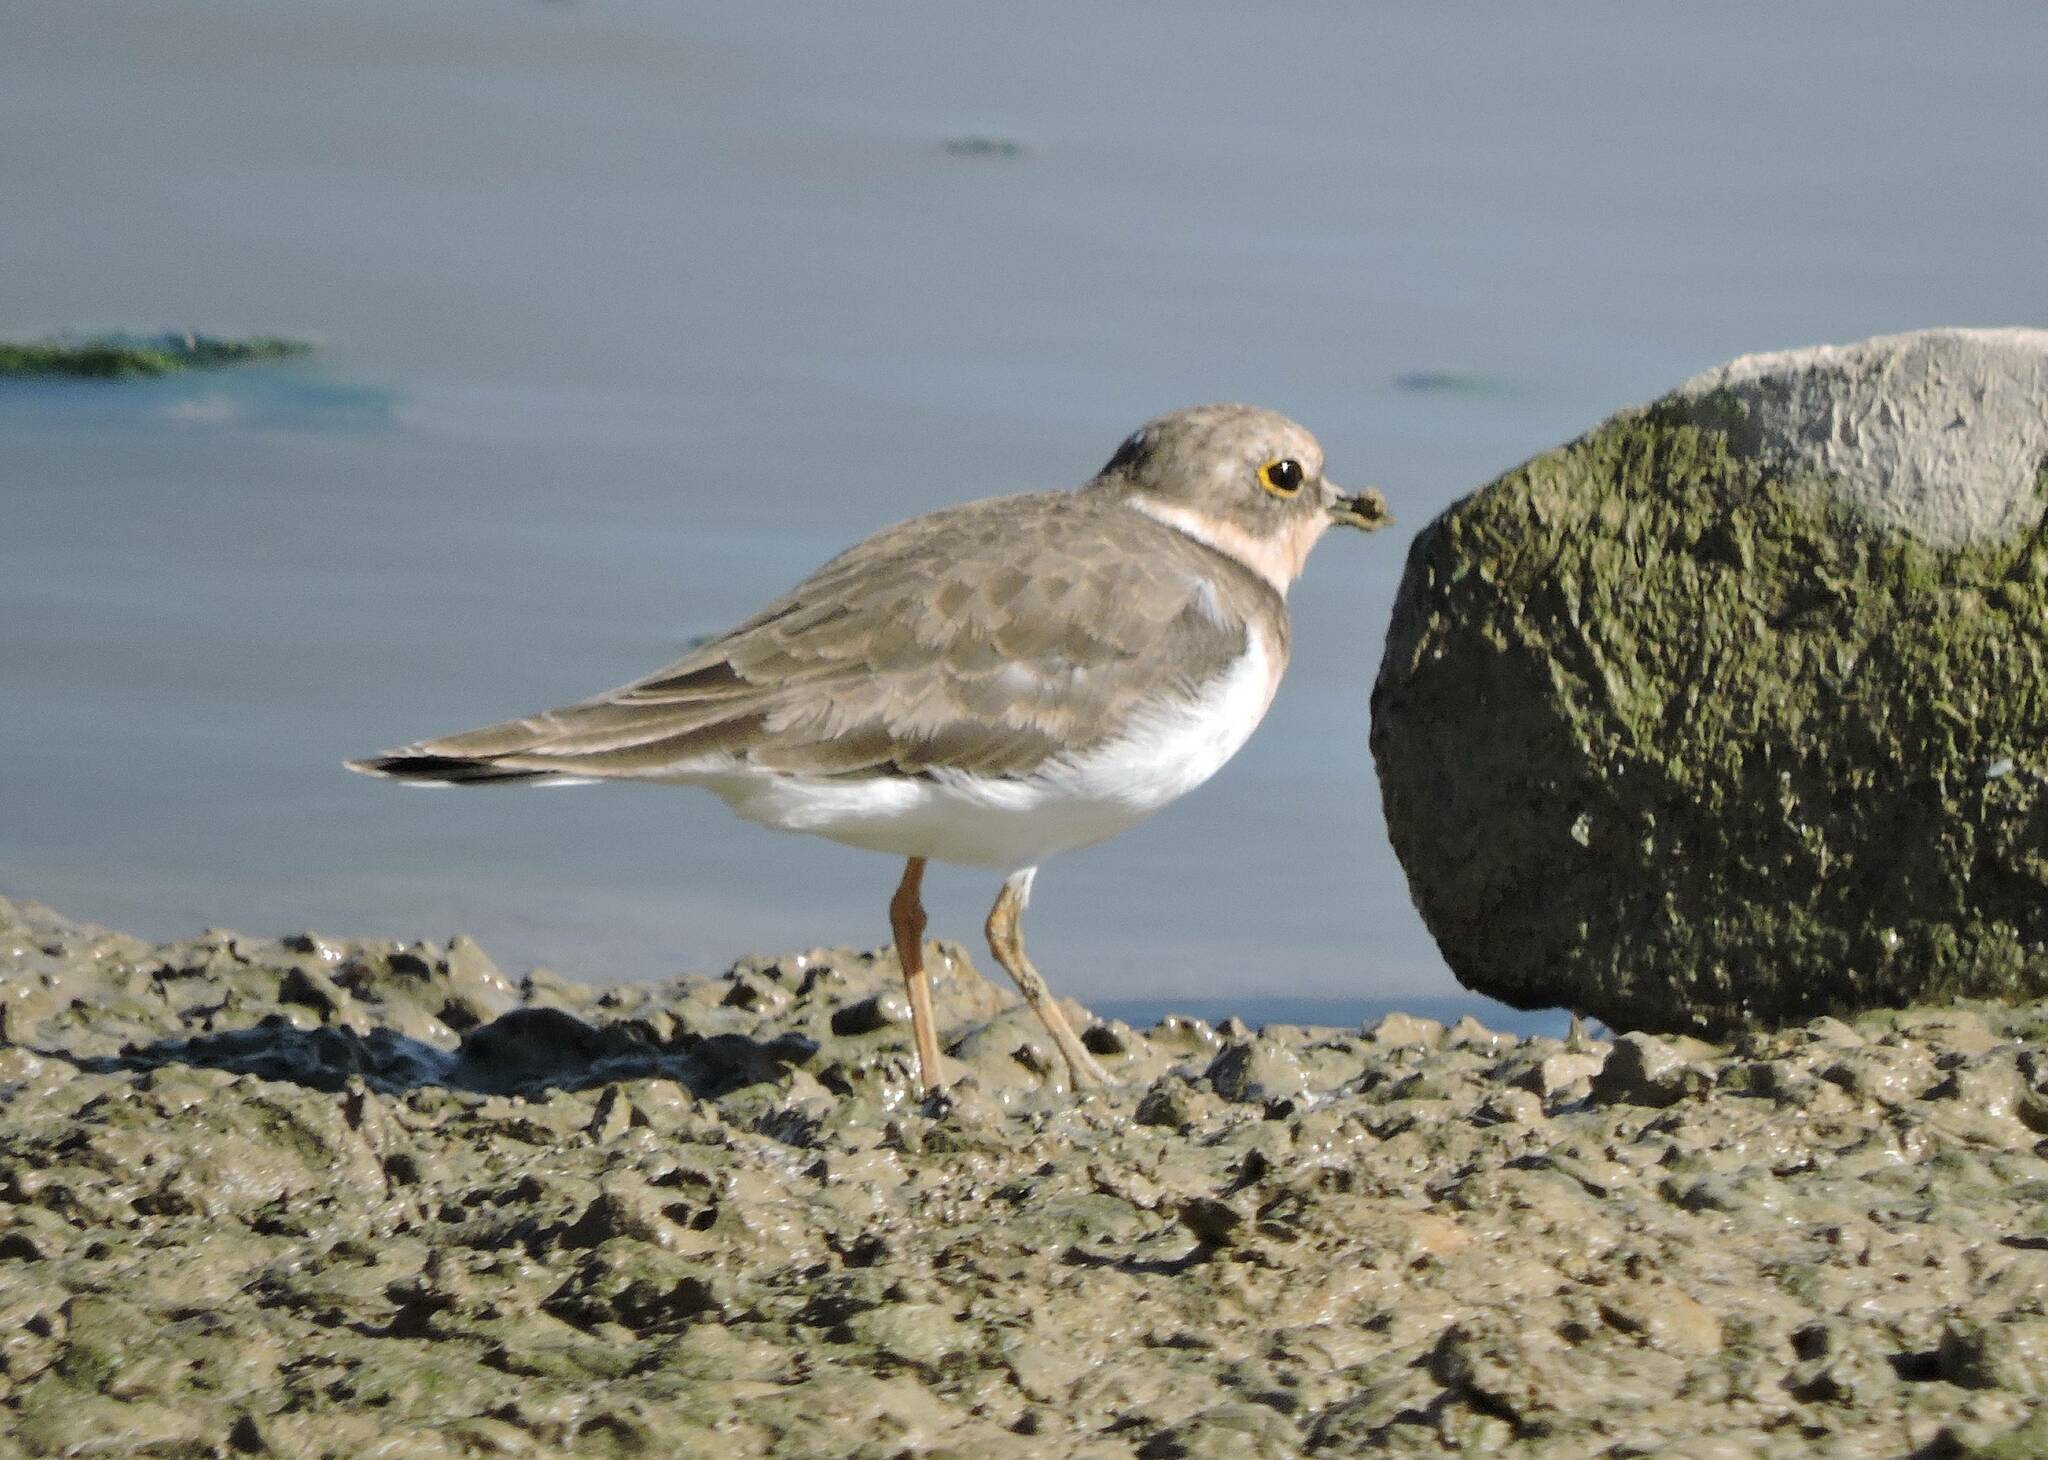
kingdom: Animalia
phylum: Chordata
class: Aves
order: Charadriiformes
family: Charadriidae
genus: Charadrius
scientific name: Charadrius dubius
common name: Little ringed plover
